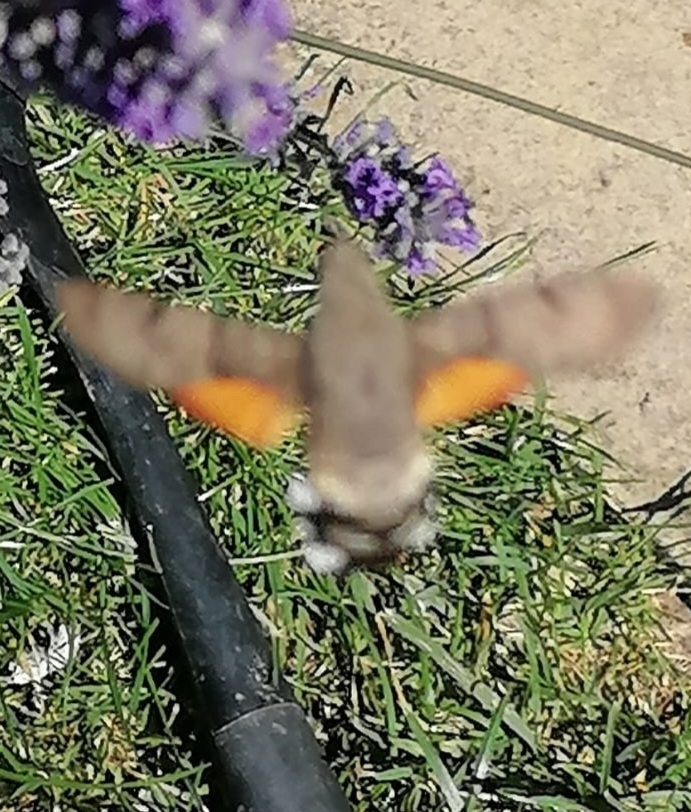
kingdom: Animalia
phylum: Arthropoda
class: Insecta
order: Lepidoptera
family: Sphingidae
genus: Macroglossum
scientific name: Macroglossum stellatarum
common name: Humming-bird hawk-moth
